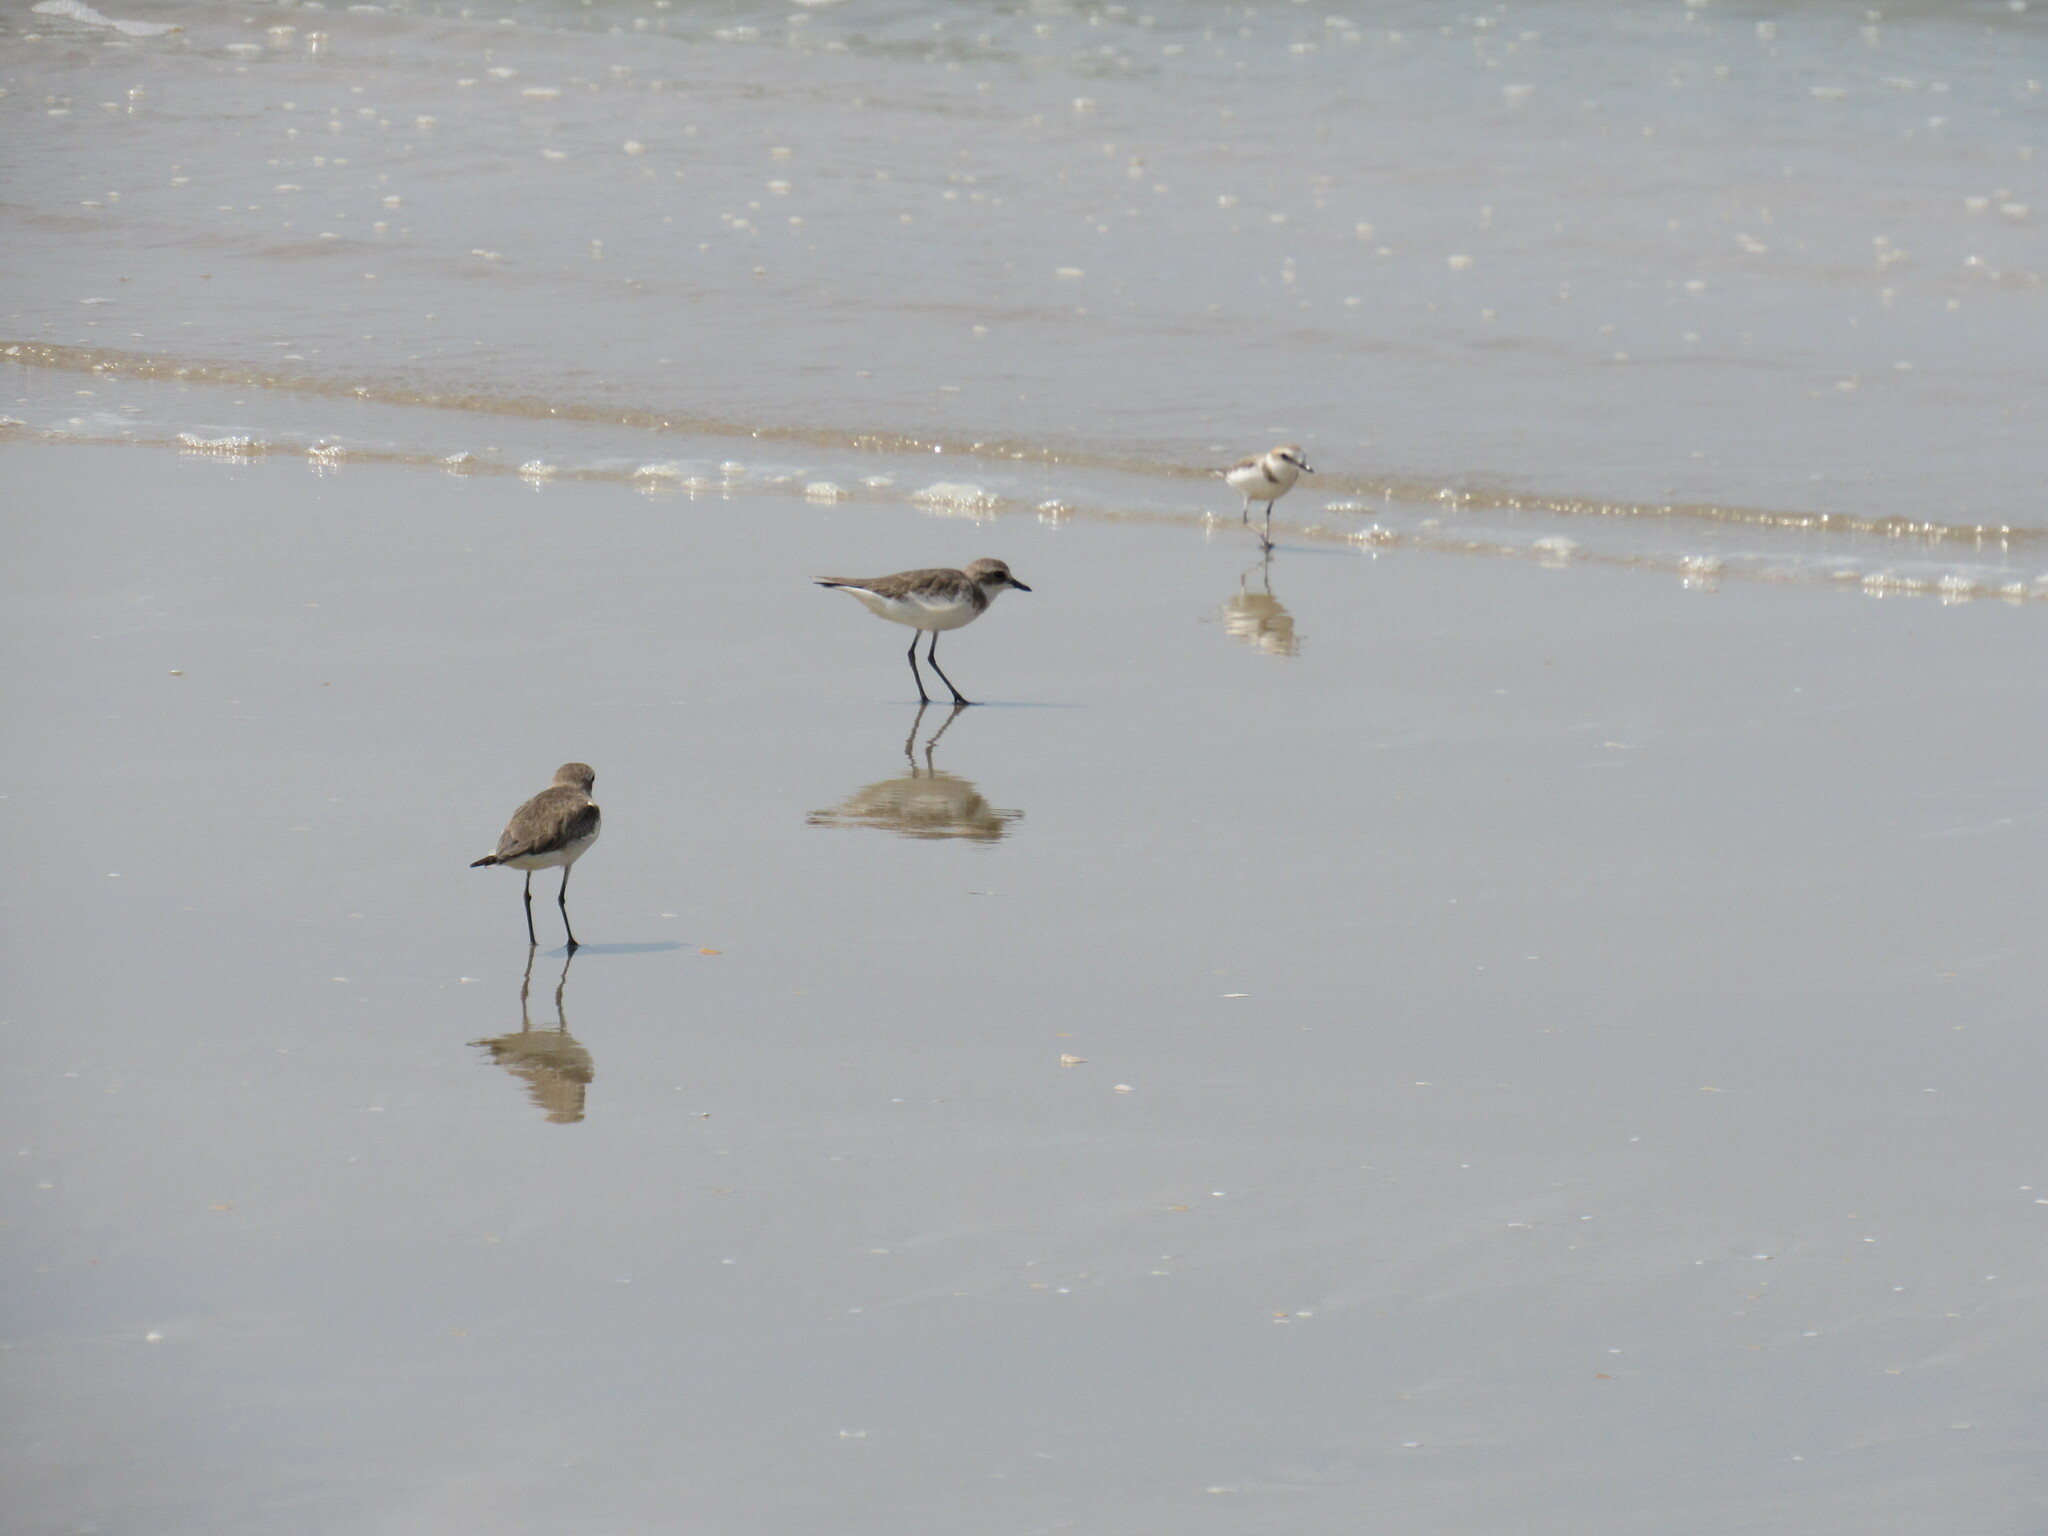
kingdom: Animalia
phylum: Chordata
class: Aves
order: Charadriiformes
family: Charadriidae
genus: Charadrius
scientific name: Charadrius leschenaultii
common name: Greater sand plover
